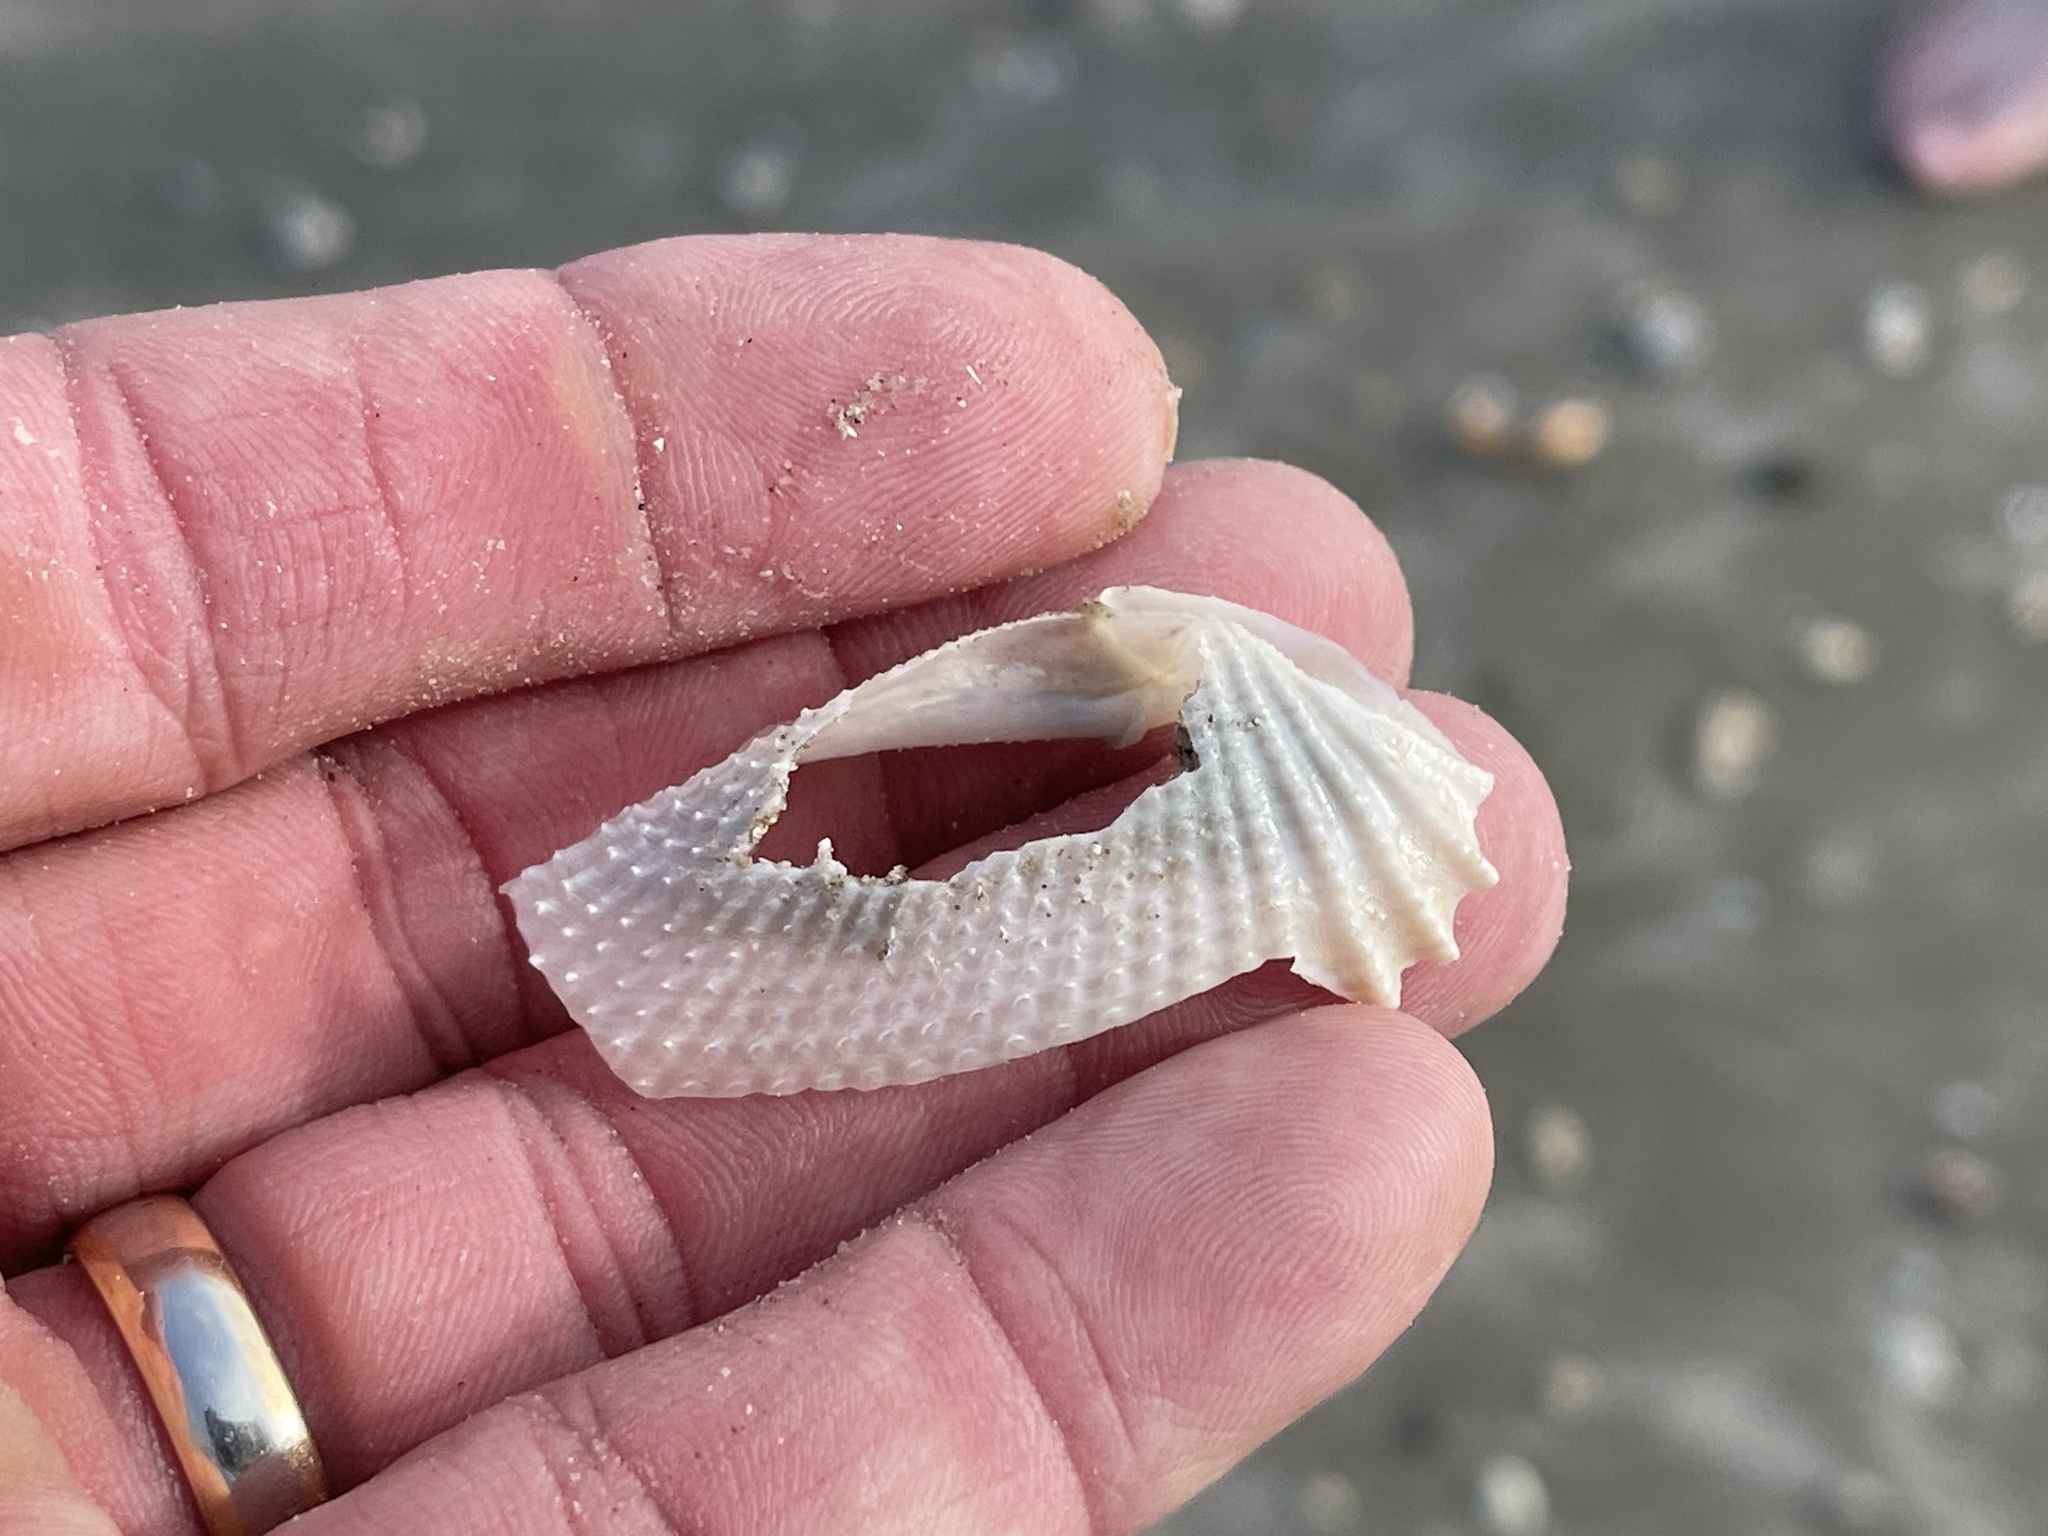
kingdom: Animalia
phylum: Mollusca
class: Bivalvia
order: Myida
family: Pholadidae
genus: Cyrtopleura
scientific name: Cyrtopleura costata
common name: Angel wing
